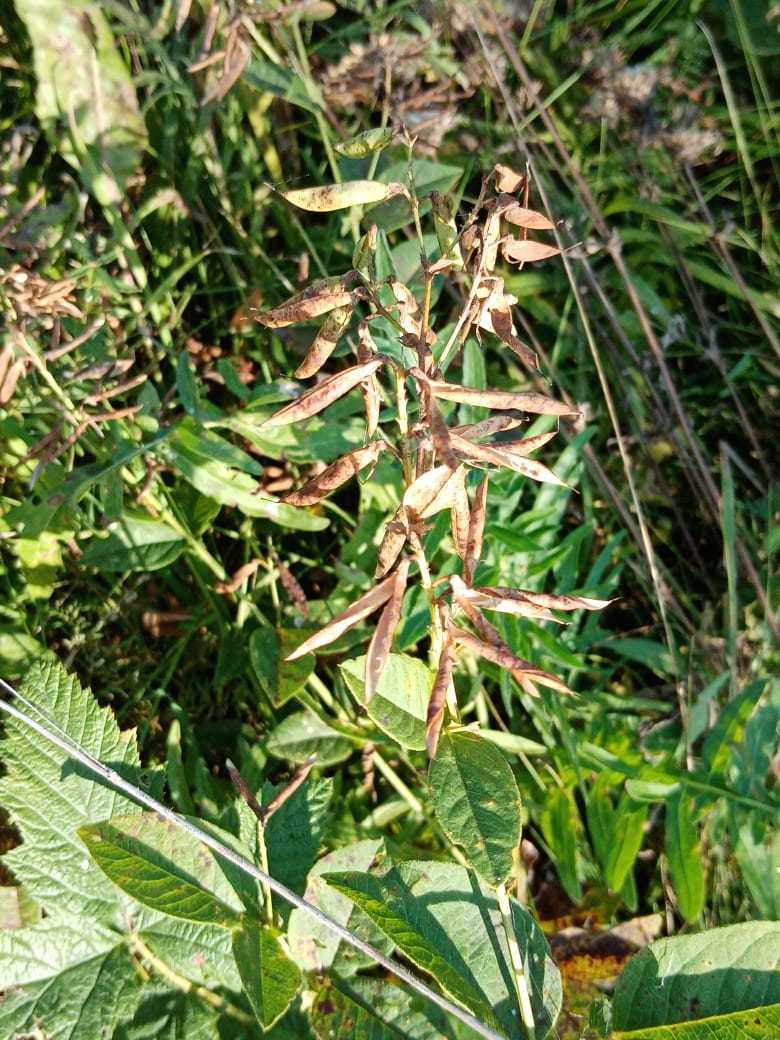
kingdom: Plantae
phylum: Tracheophyta
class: Magnoliopsida
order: Fabales
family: Fabaceae
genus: Vicia
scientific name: Vicia unijuga
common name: Two-leaf vetch
